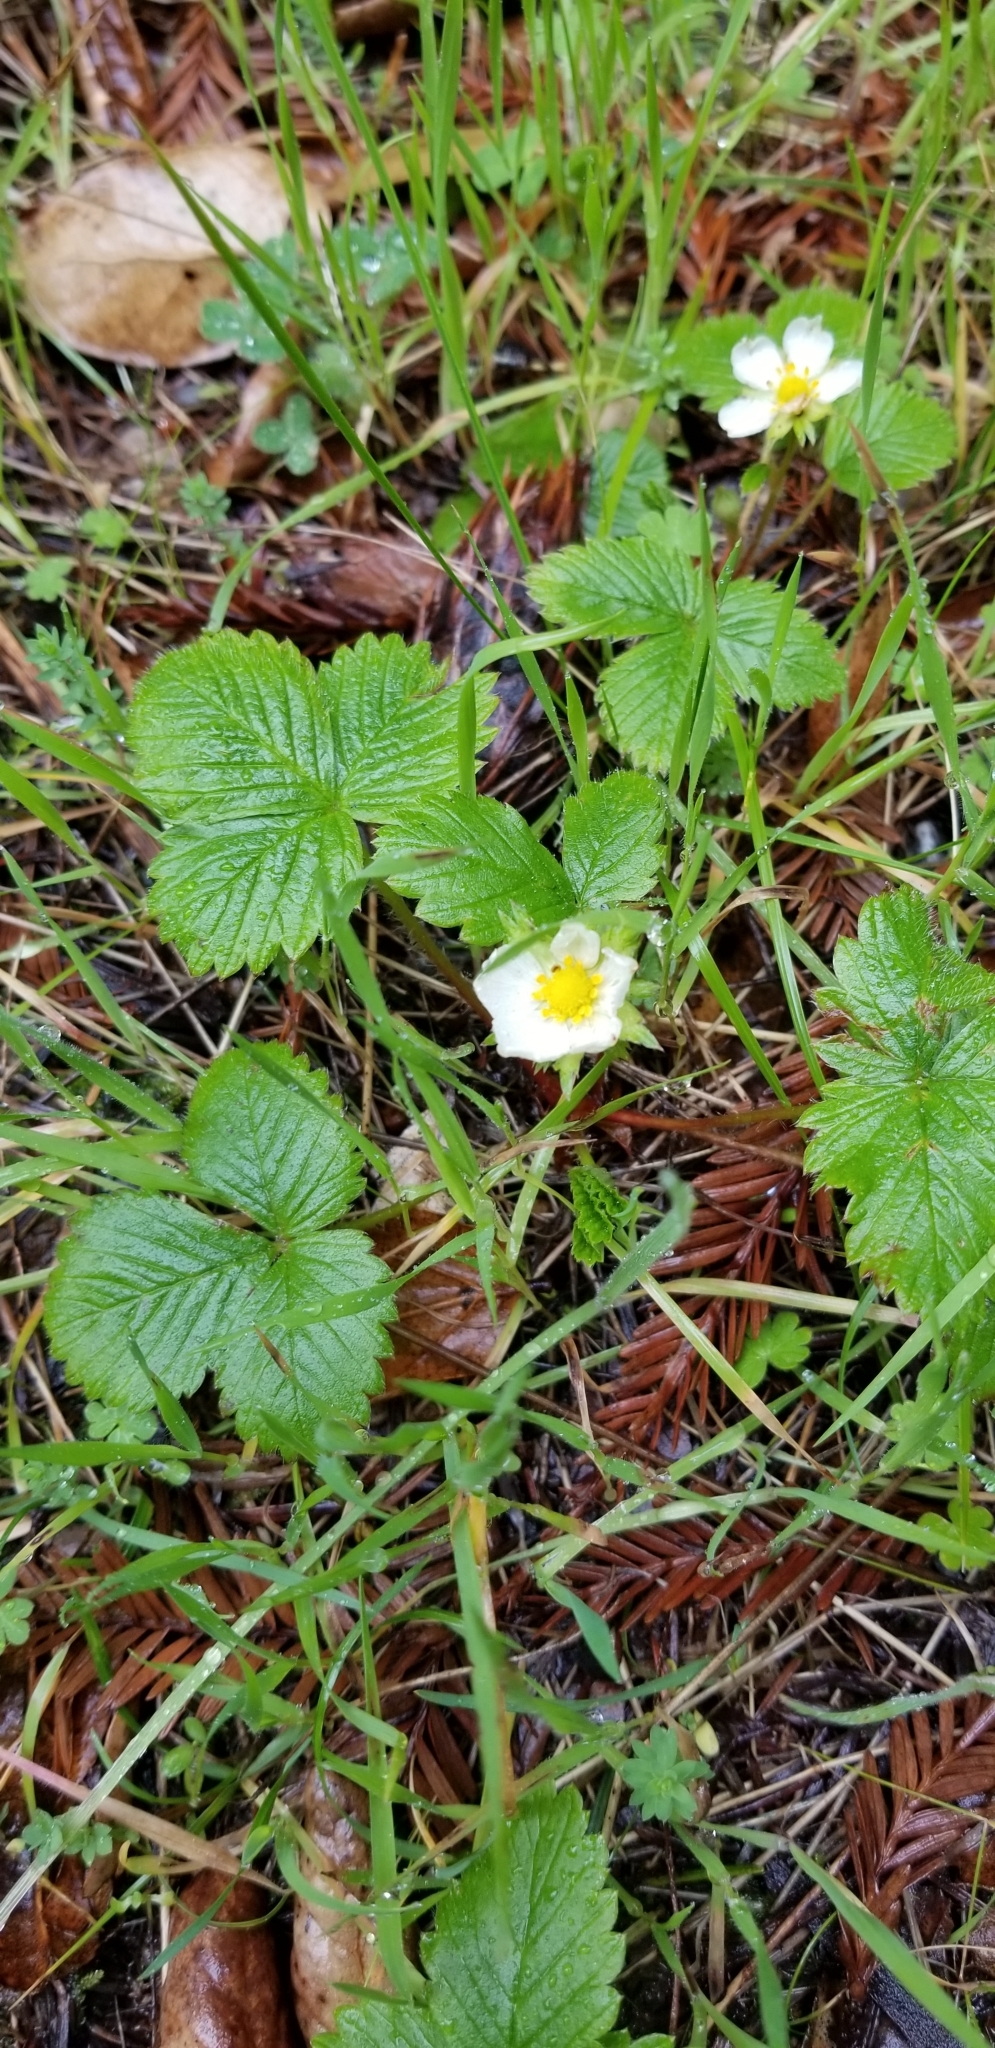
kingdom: Plantae
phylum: Tracheophyta
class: Magnoliopsida
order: Rosales
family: Rosaceae
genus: Fragaria
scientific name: Fragaria vesca
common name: Wild strawberry
